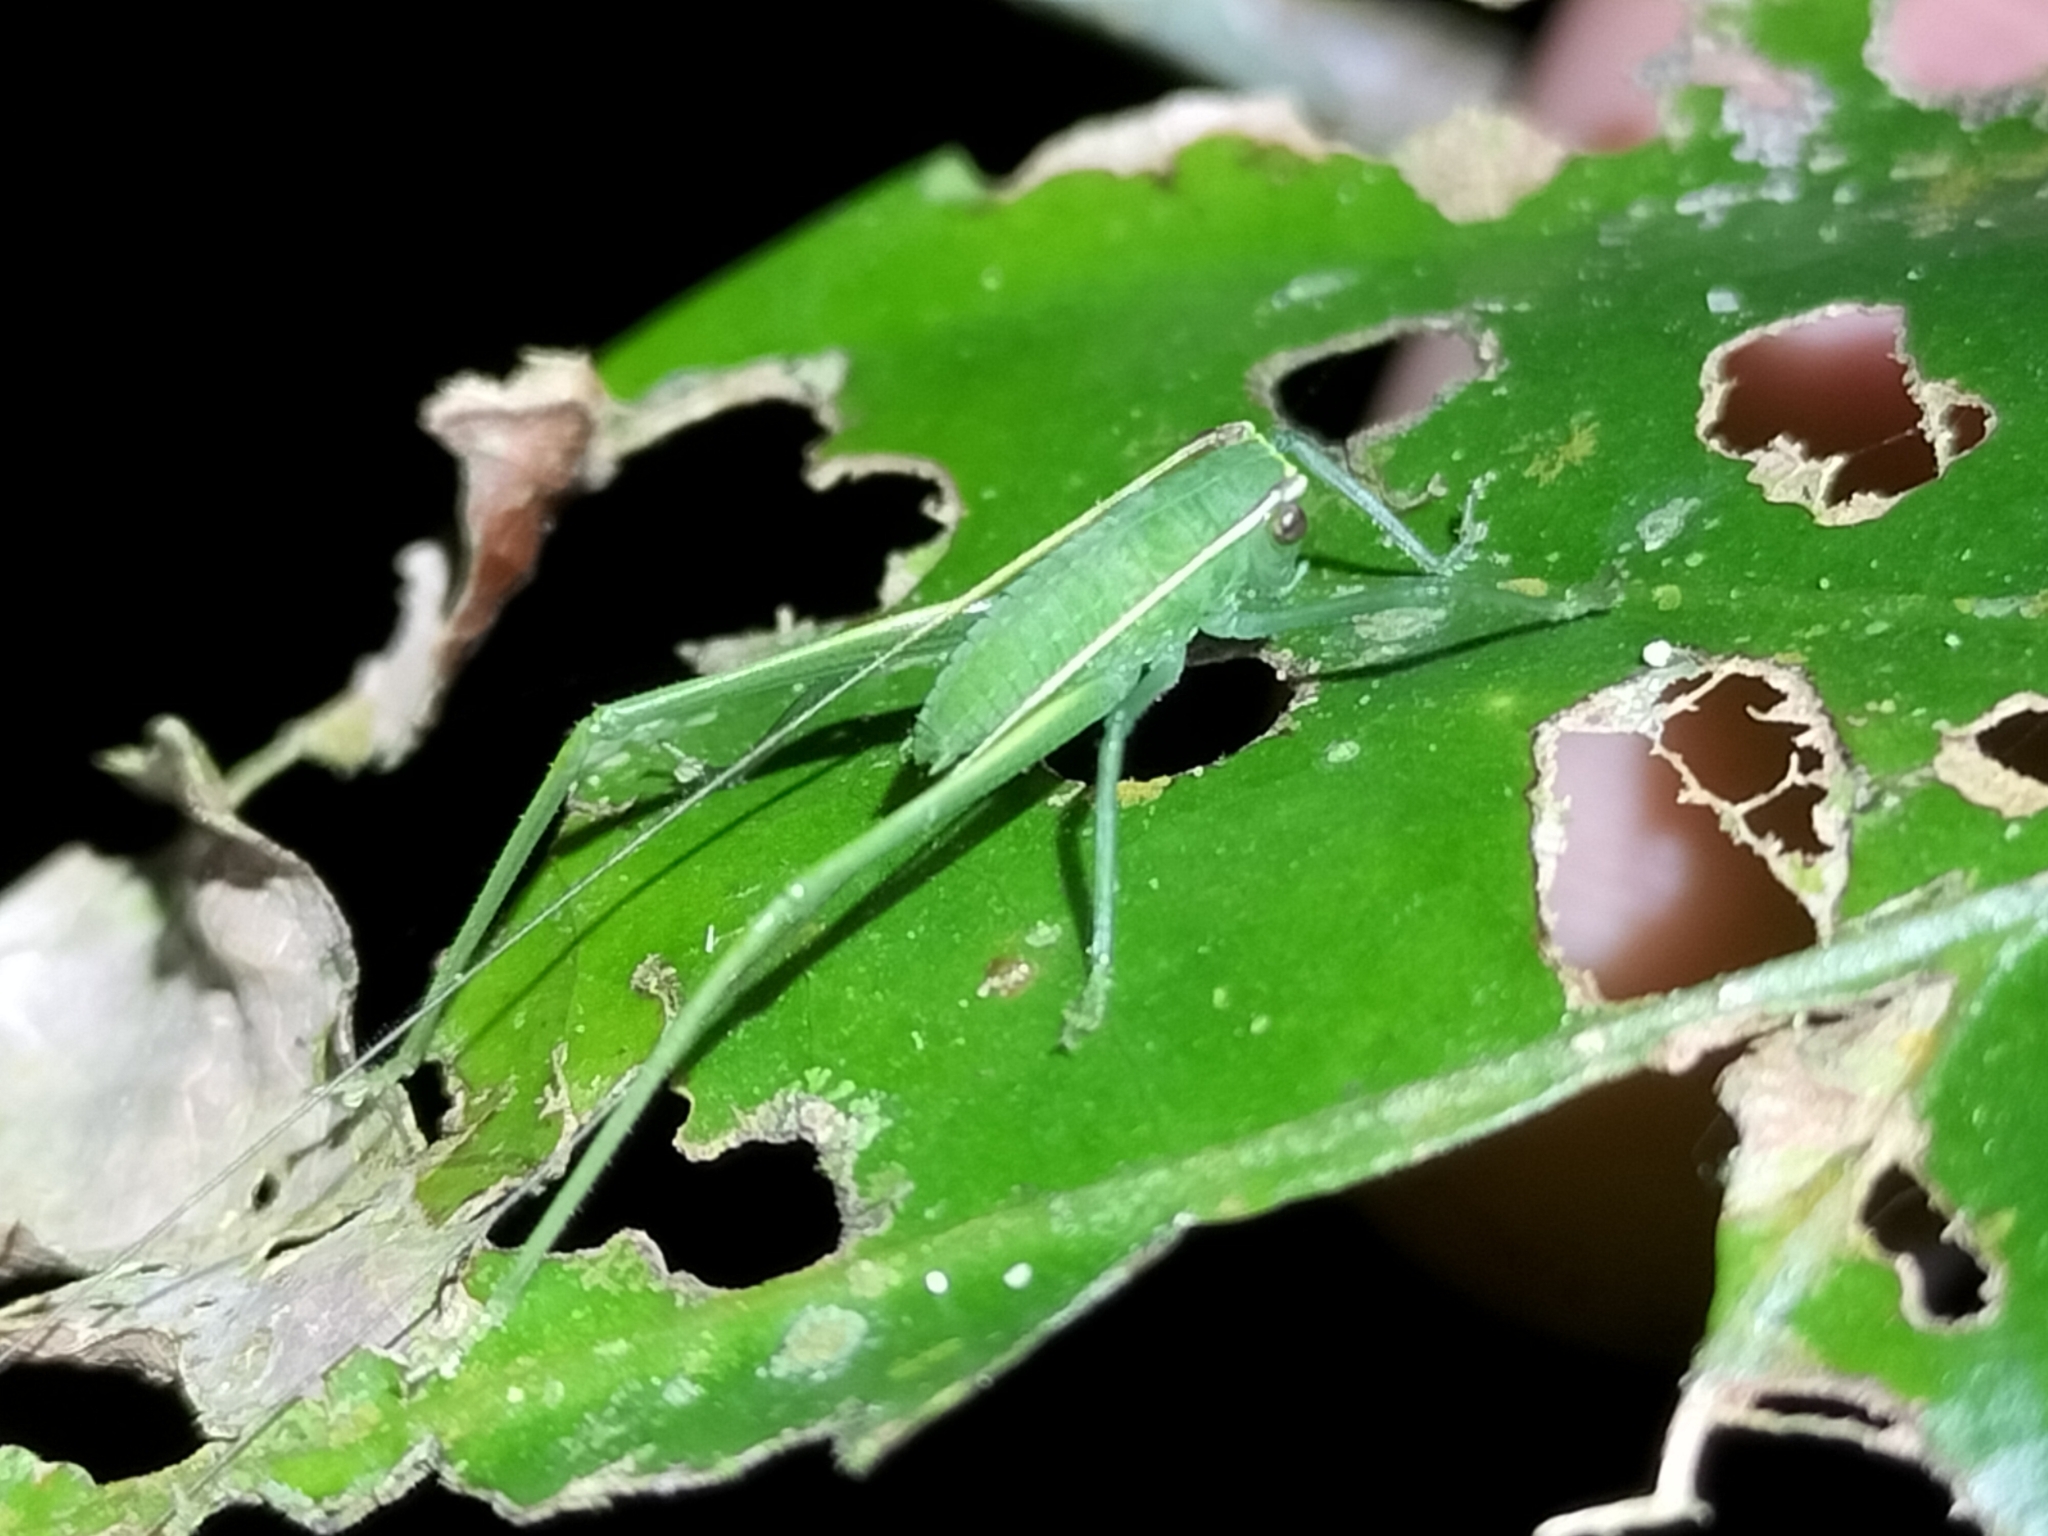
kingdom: Animalia
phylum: Arthropoda
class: Insecta
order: Orthoptera
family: Tettigoniidae
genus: Phyllophorella
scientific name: Phyllophorella queenslandica
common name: Queensland small hooded katydid
